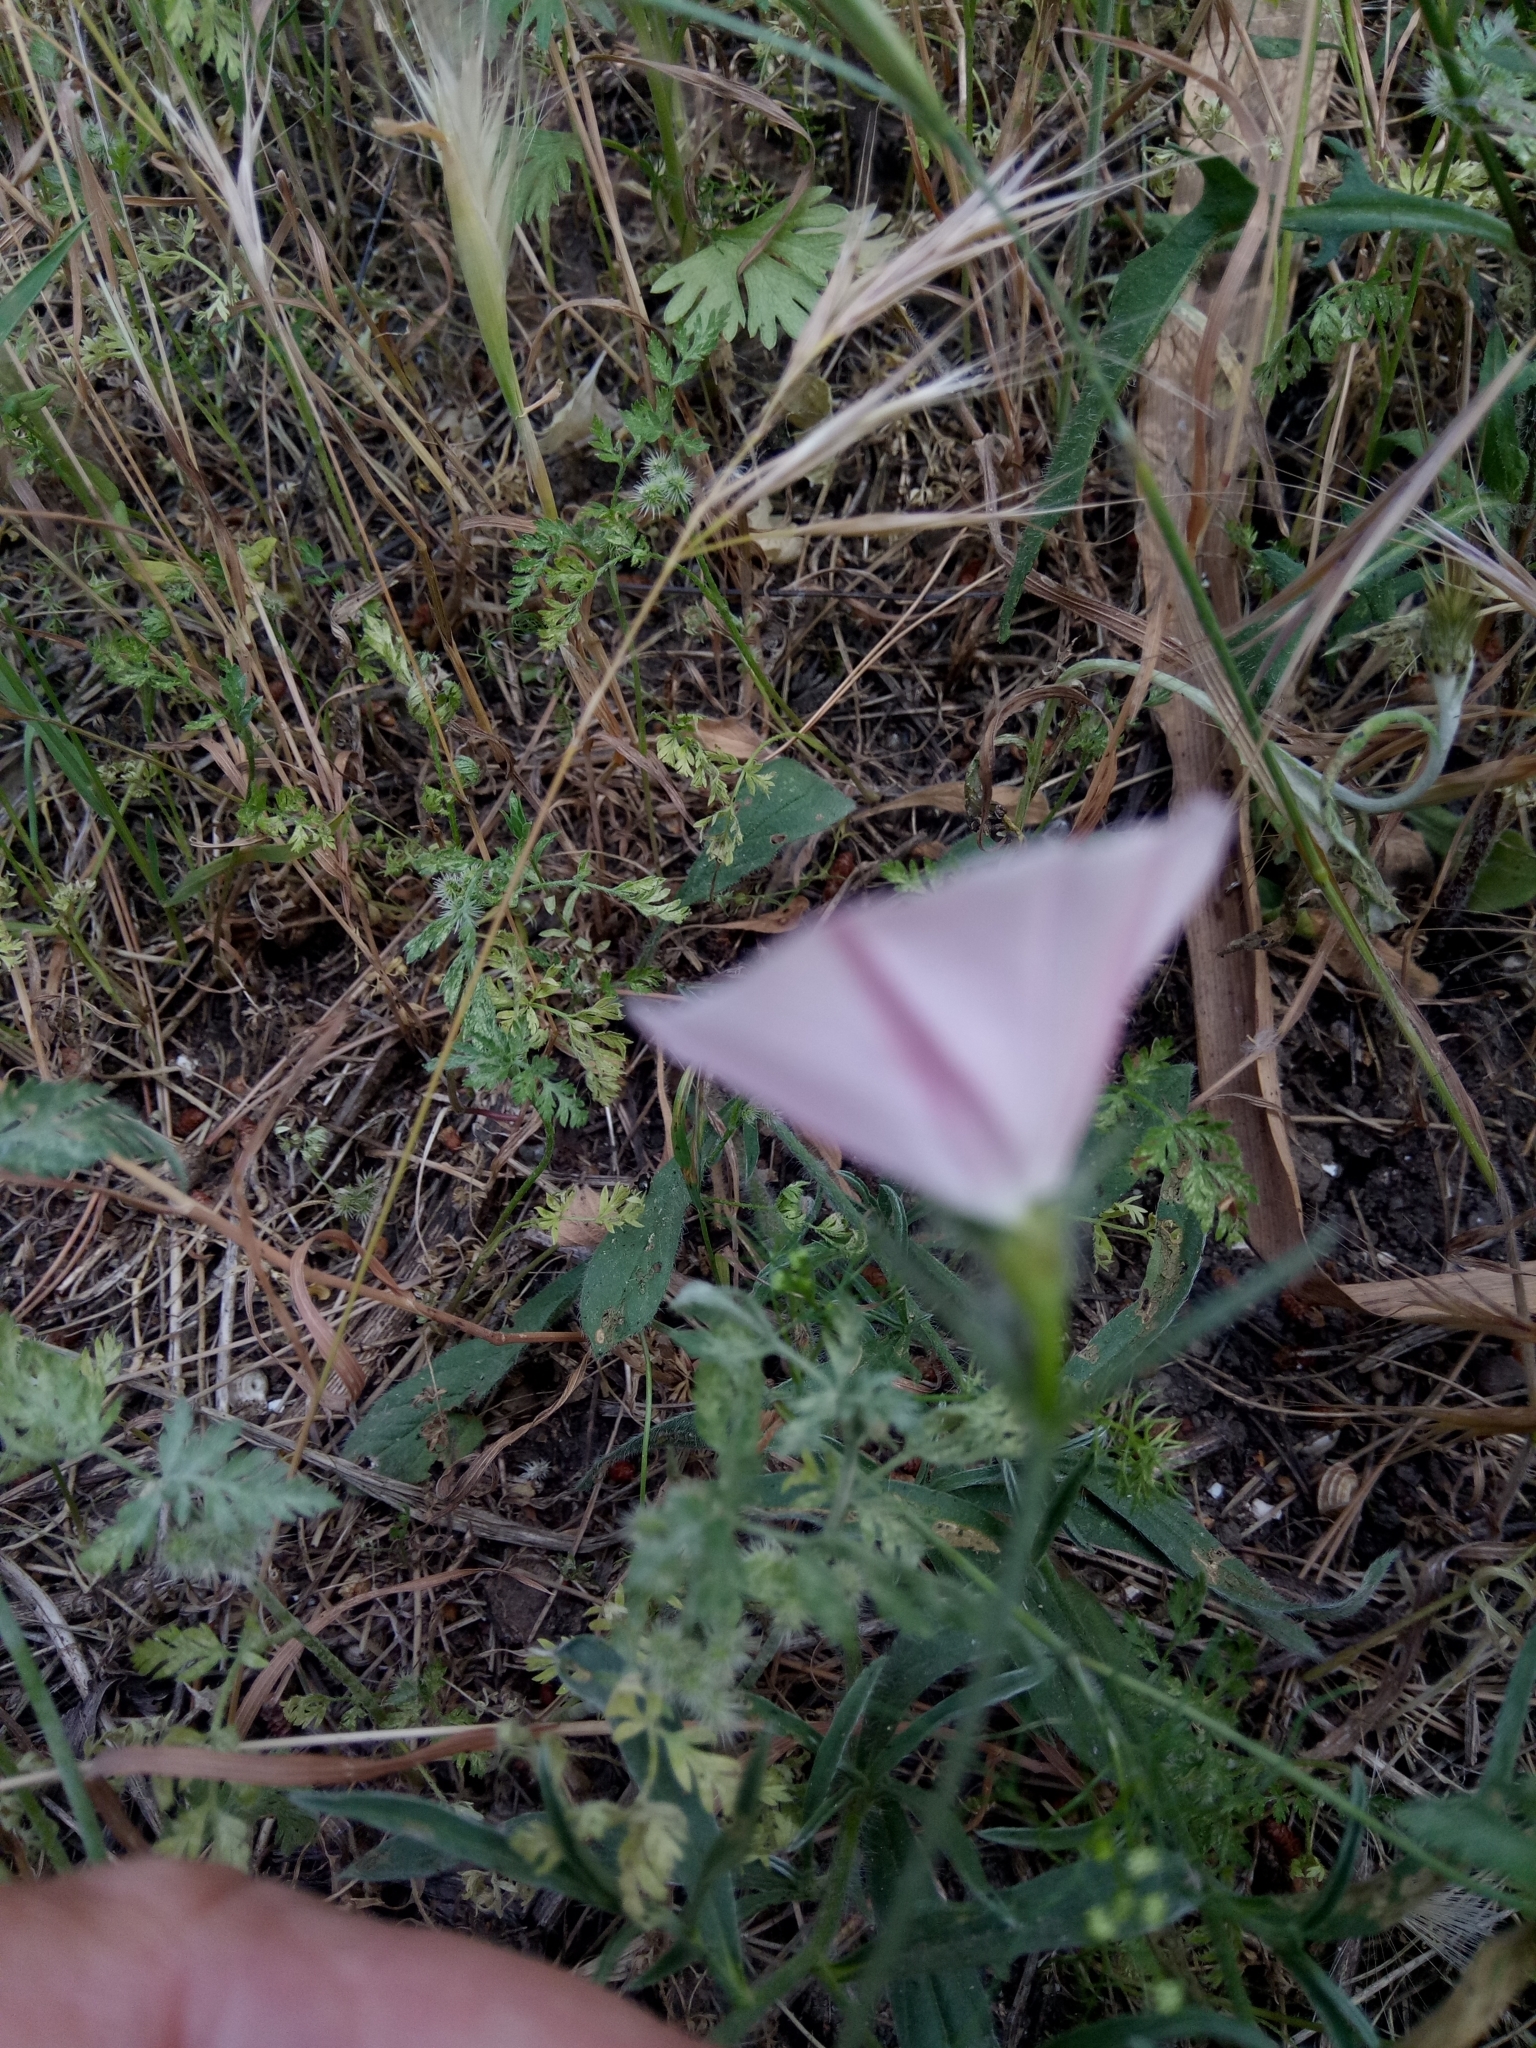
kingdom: Plantae
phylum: Tracheophyta
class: Magnoliopsida
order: Solanales
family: Convolvulaceae
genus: Convolvulus
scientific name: Convolvulus cantabrica
